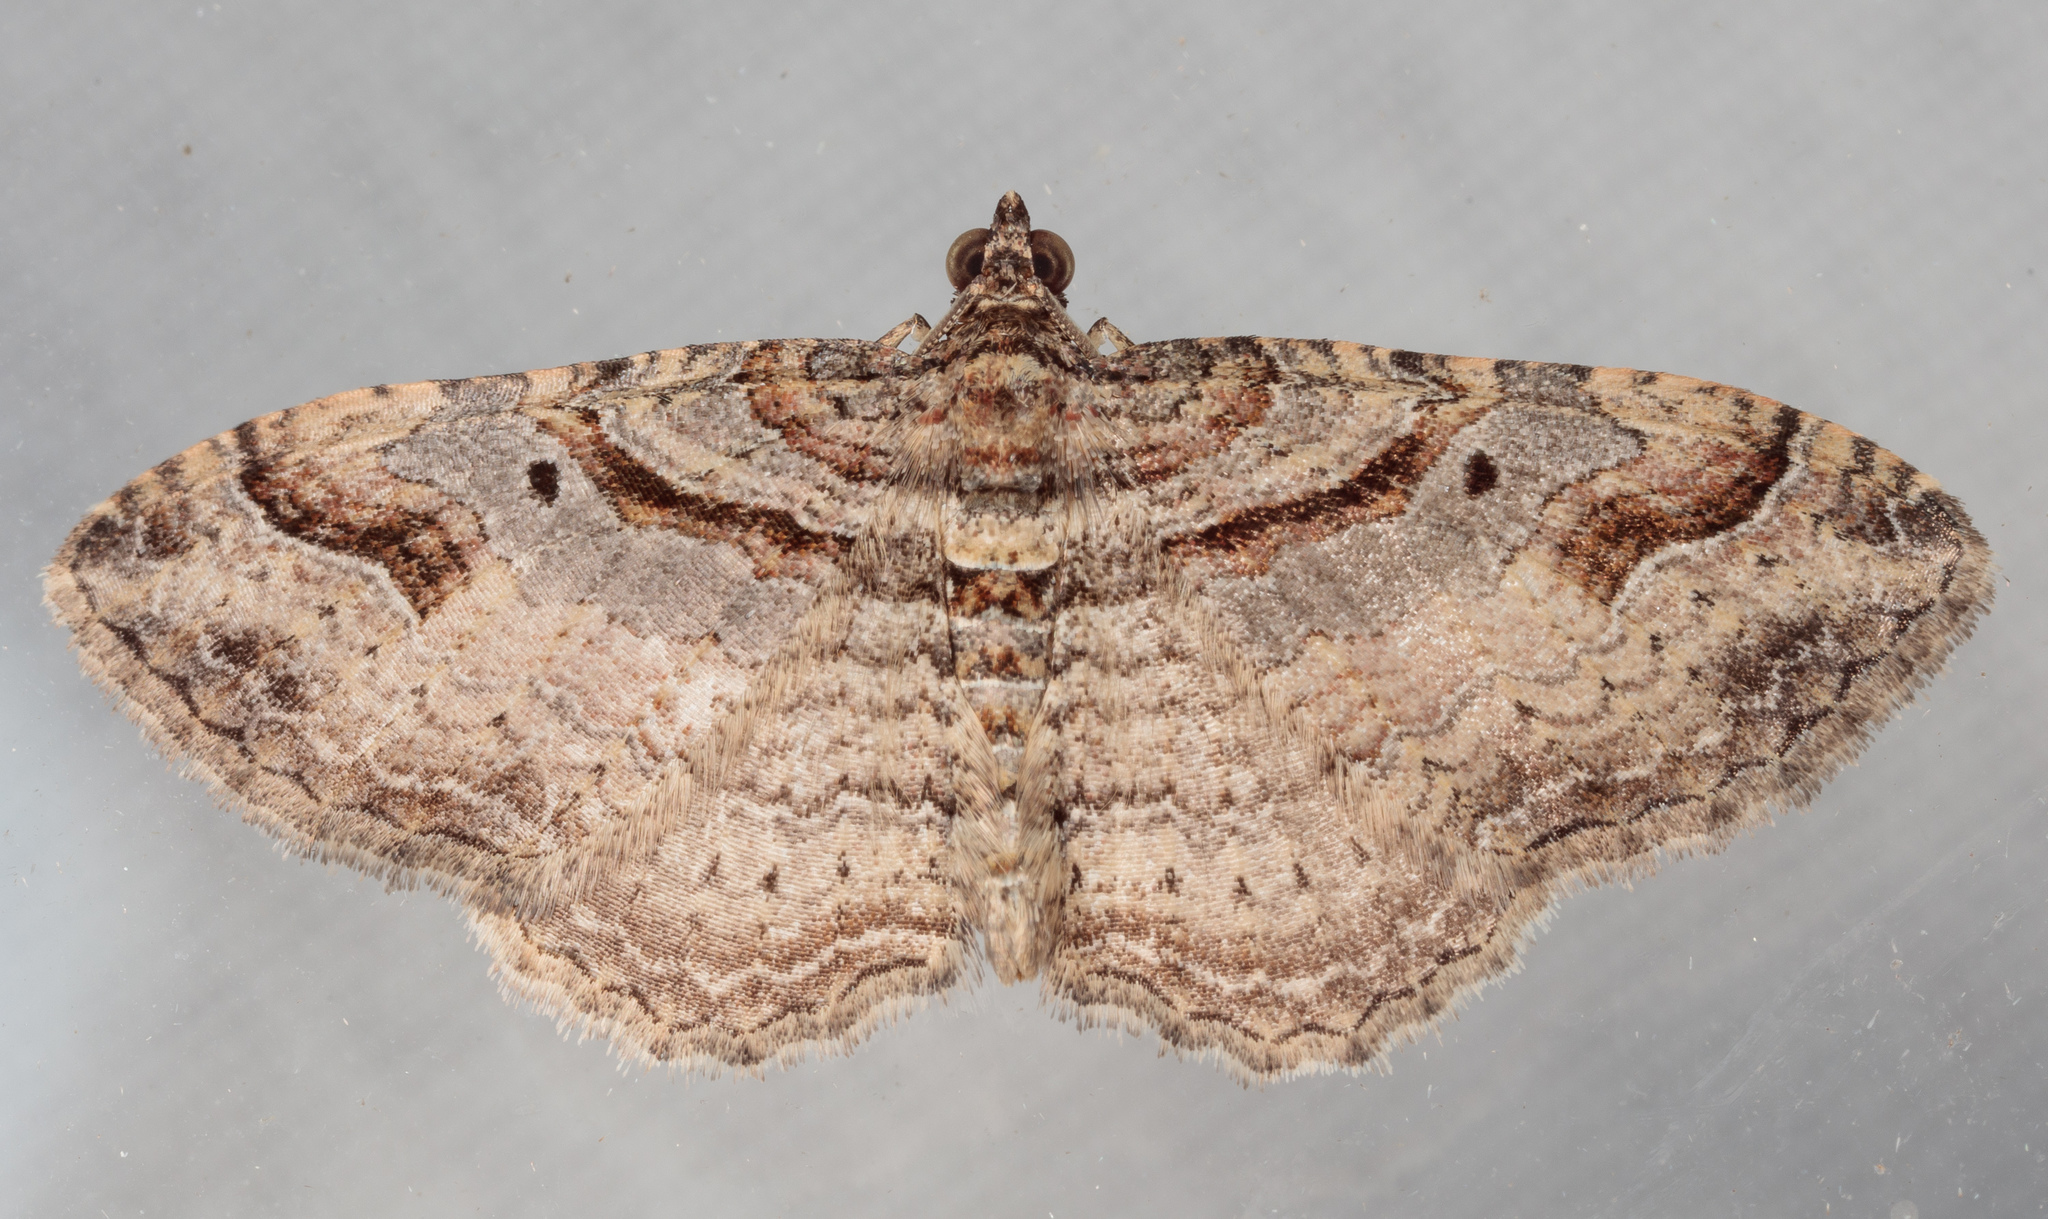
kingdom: Animalia
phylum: Arthropoda
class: Insecta
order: Lepidoptera
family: Geometridae
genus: Costaconvexa
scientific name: Costaconvexa centrostrigaria
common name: Bent-line carpet
